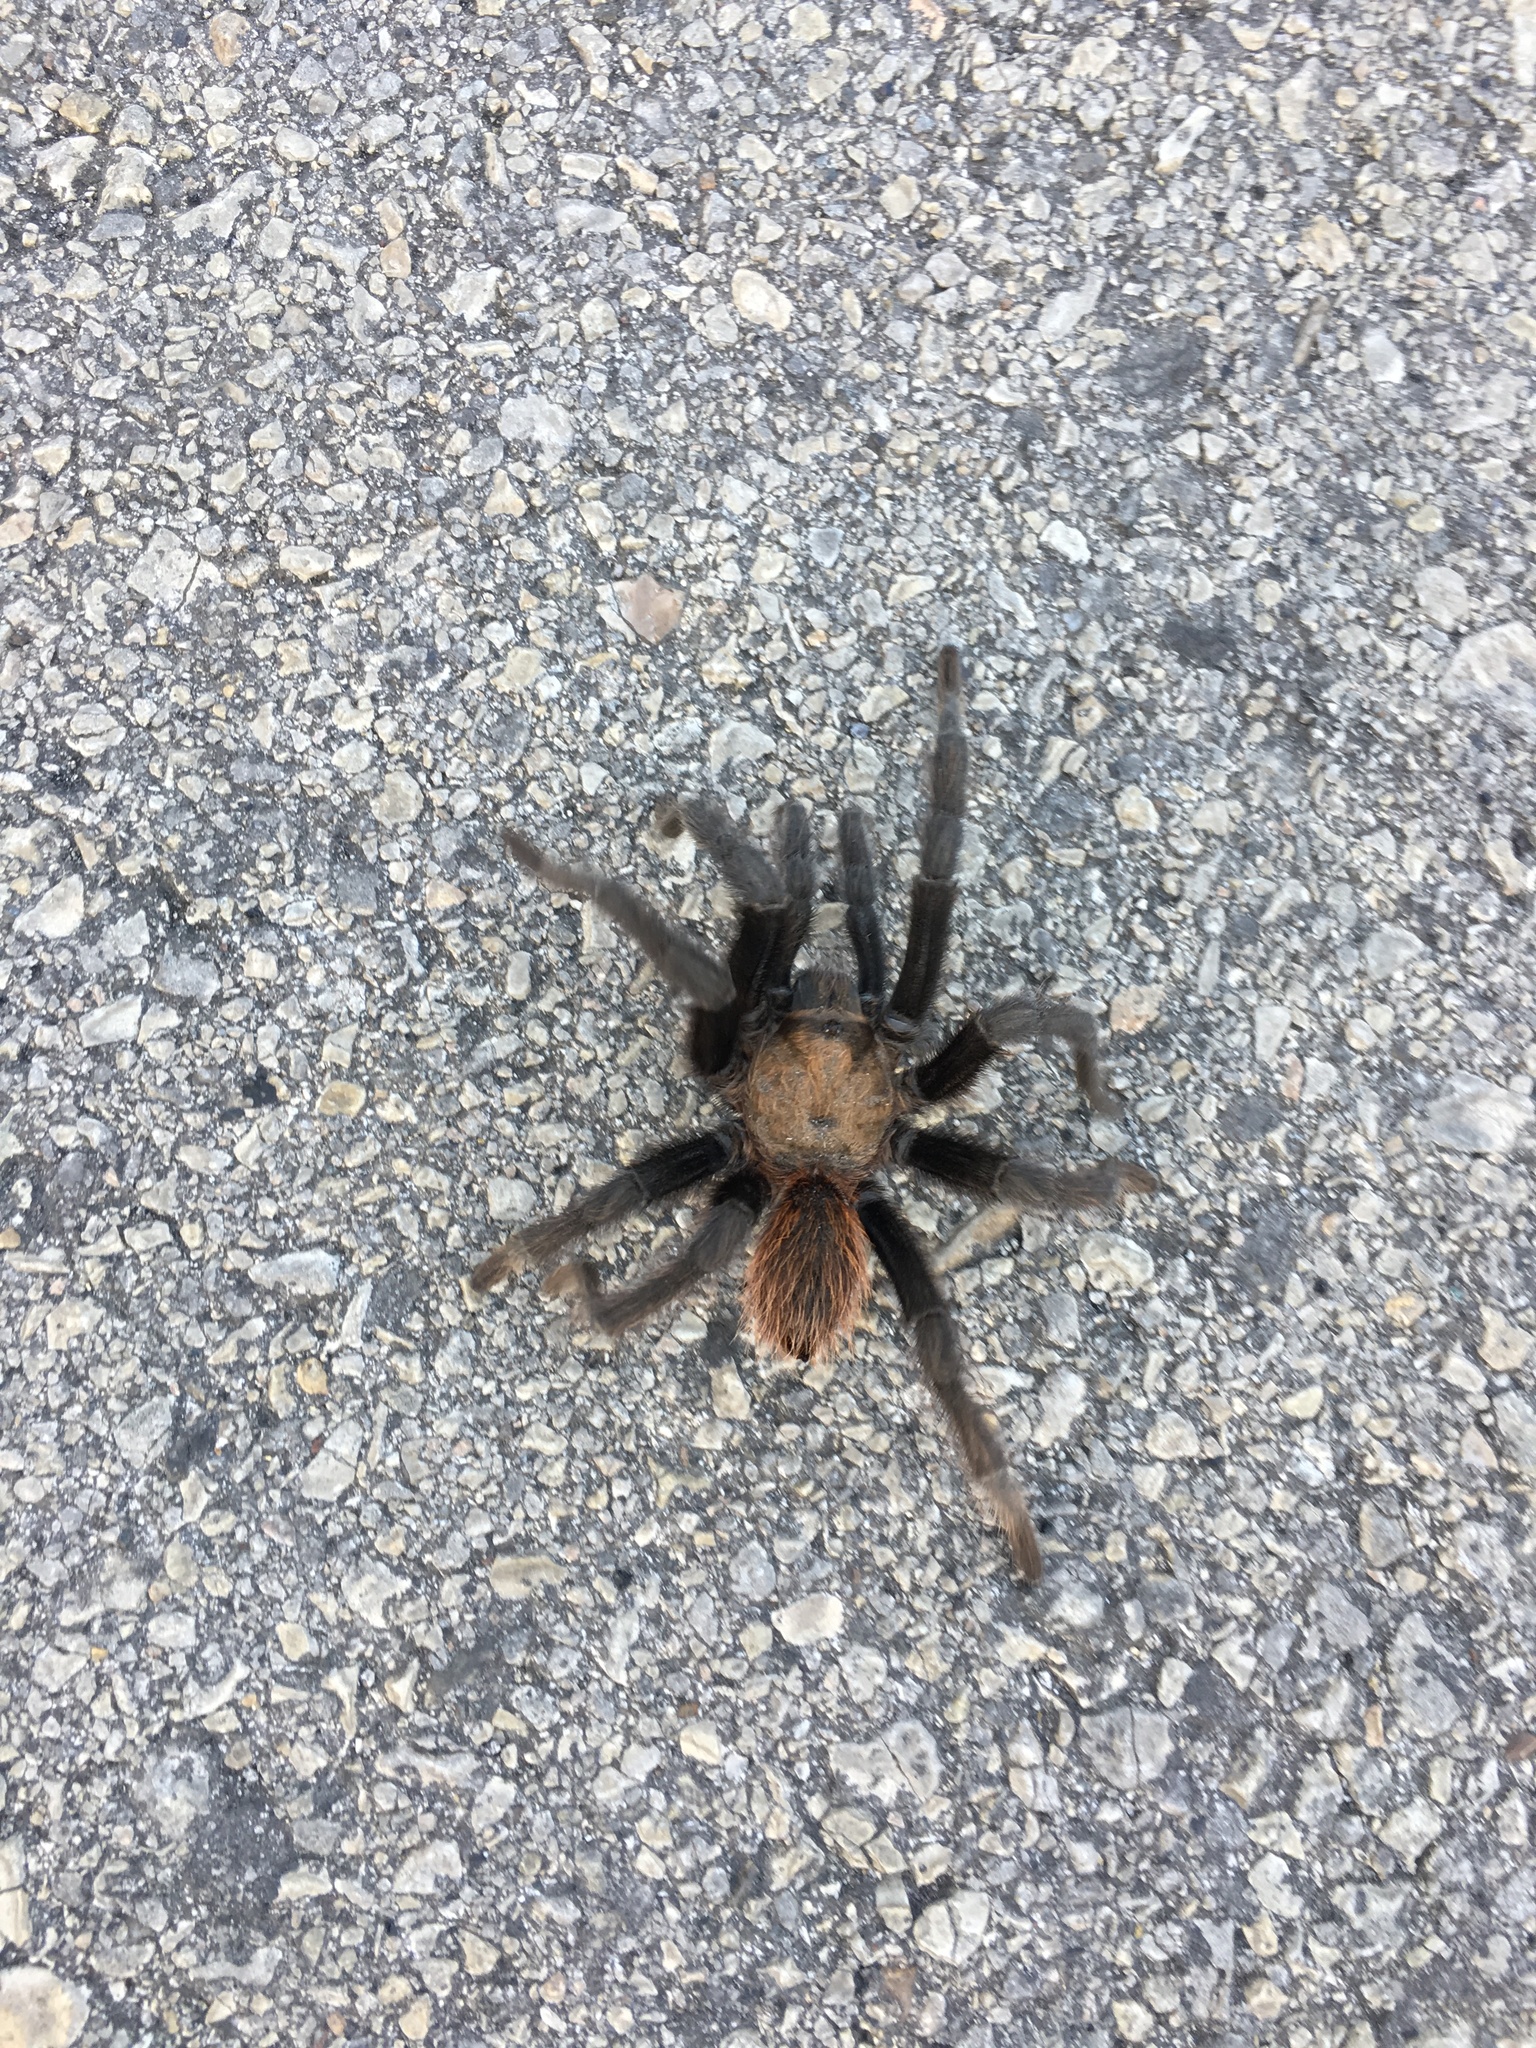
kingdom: Animalia
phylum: Arthropoda
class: Arachnida
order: Araneae
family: Theraphosidae
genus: Aphonopelma
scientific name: Aphonopelma hentzi
